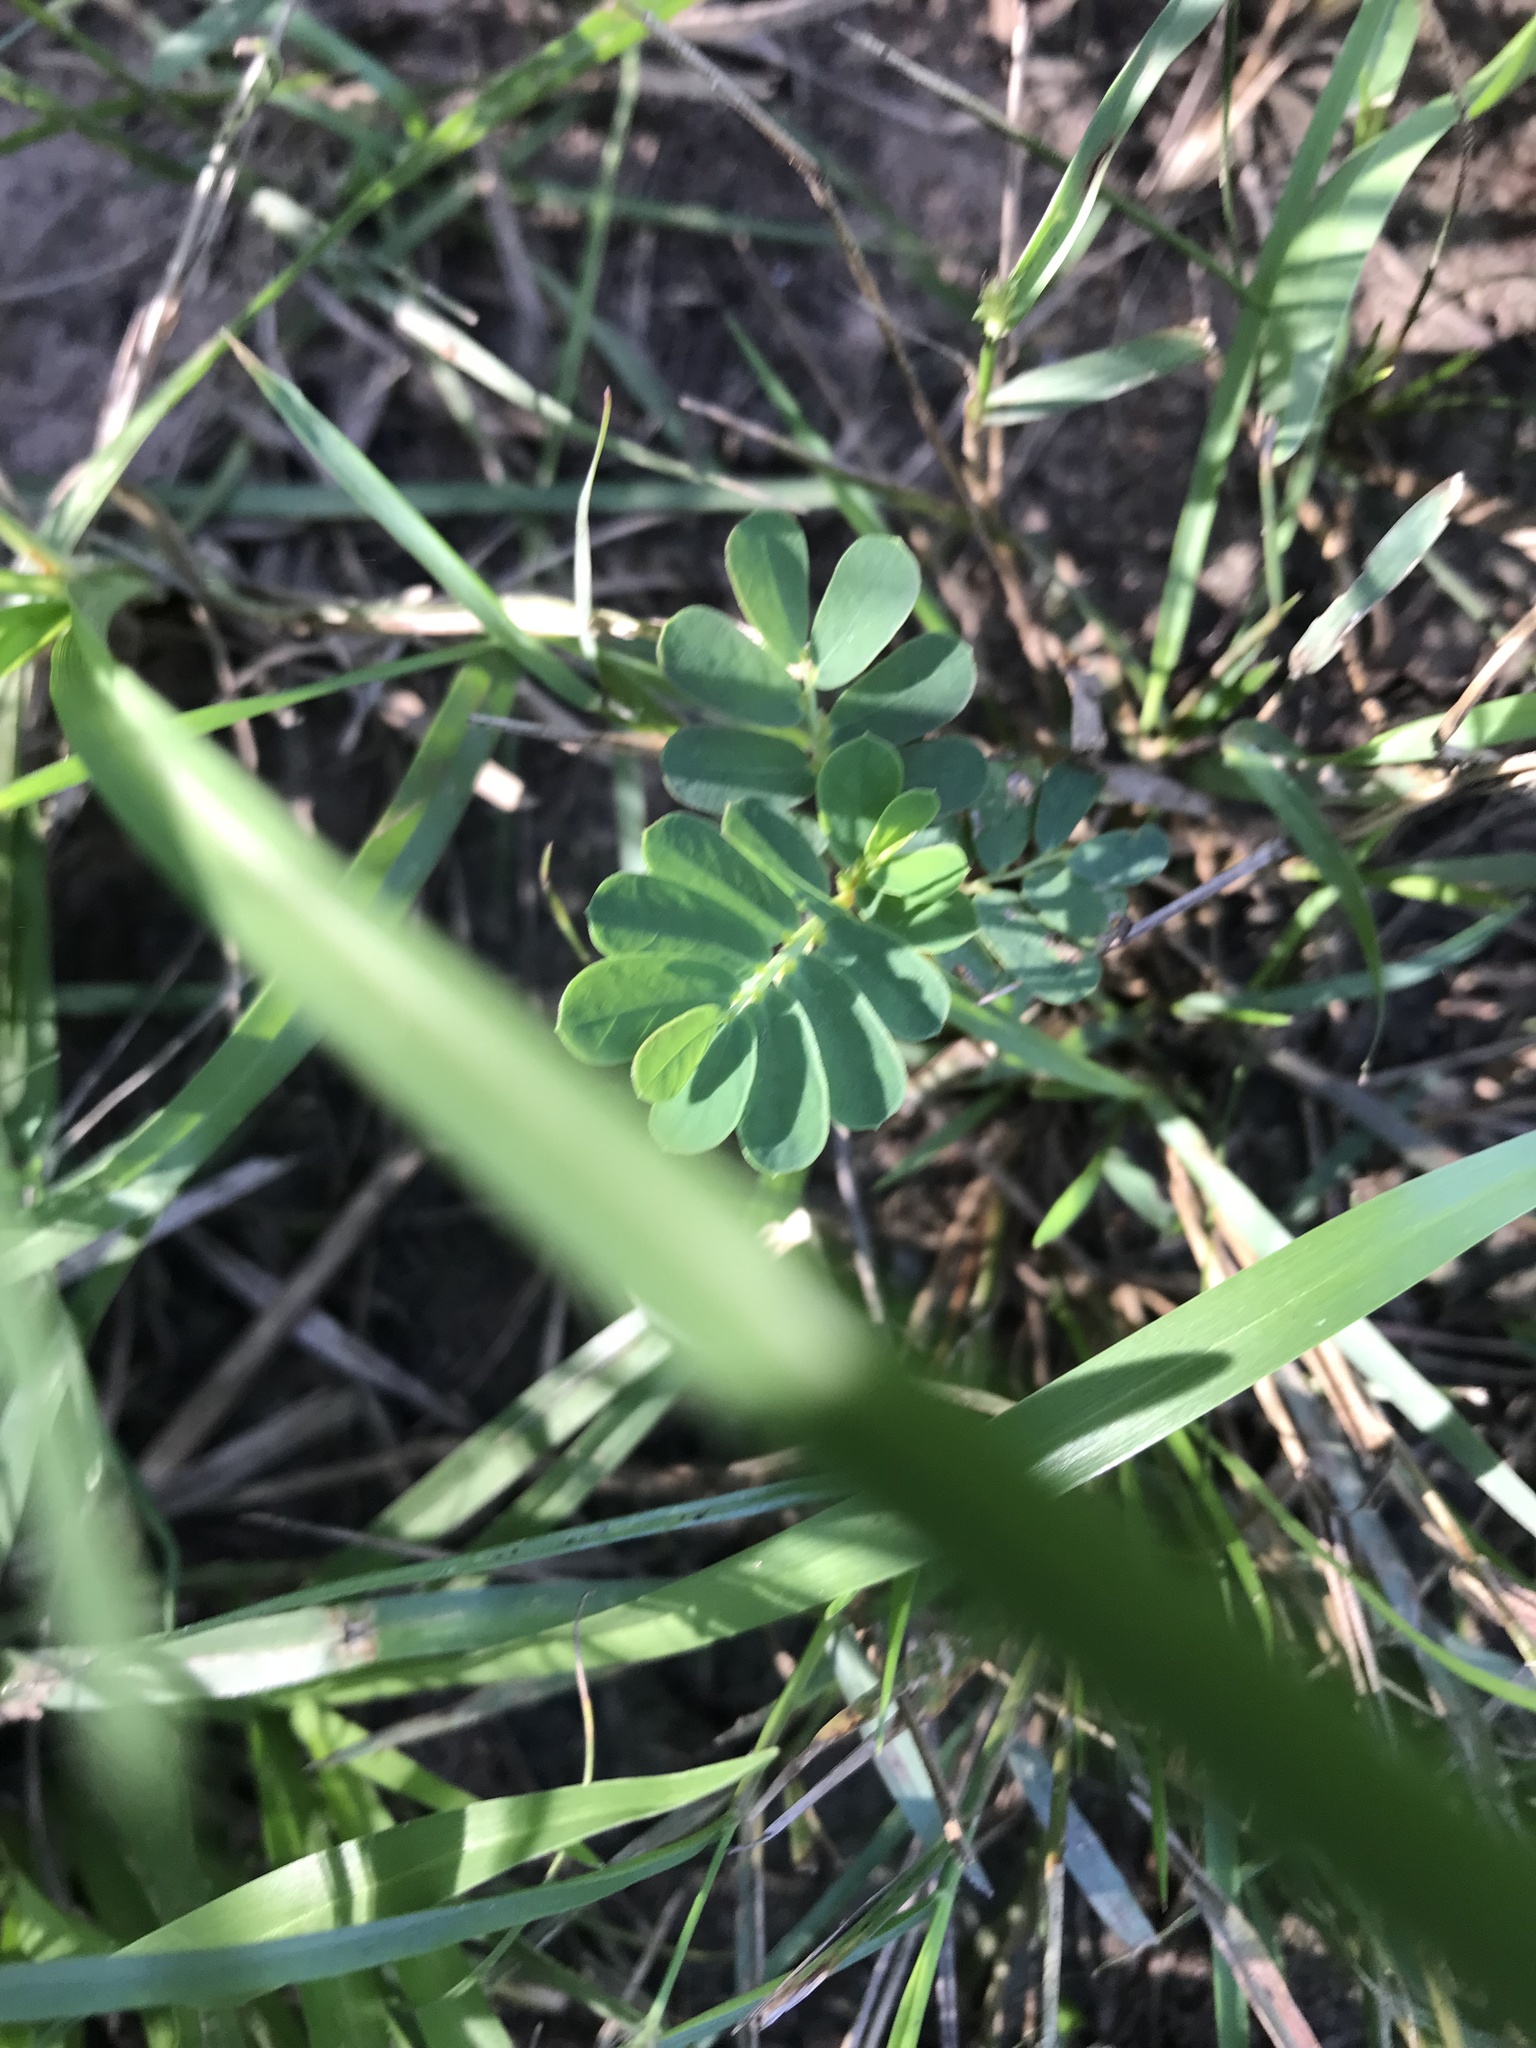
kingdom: Plantae
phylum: Tracheophyta
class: Magnoliopsida
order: Malpighiales
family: Phyllanthaceae
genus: Phyllanthus
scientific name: Phyllanthus urinaria
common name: Chamber bitter
